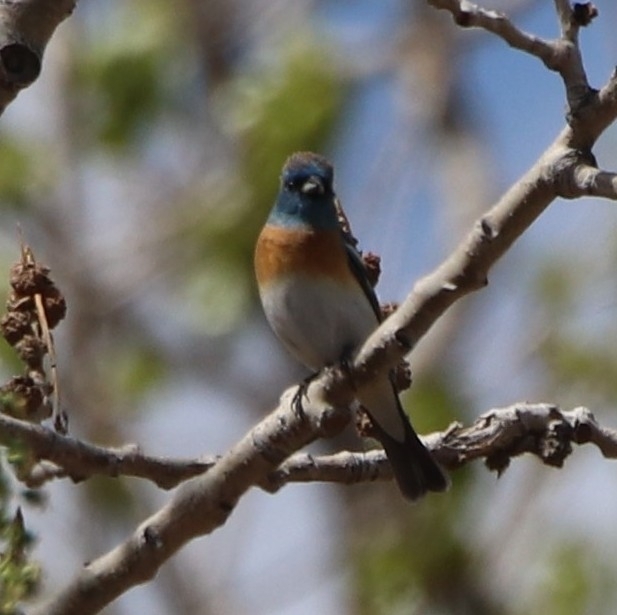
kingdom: Animalia
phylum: Chordata
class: Aves
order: Passeriformes
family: Cardinalidae
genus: Passerina
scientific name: Passerina amoena
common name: Lazuli bunting
